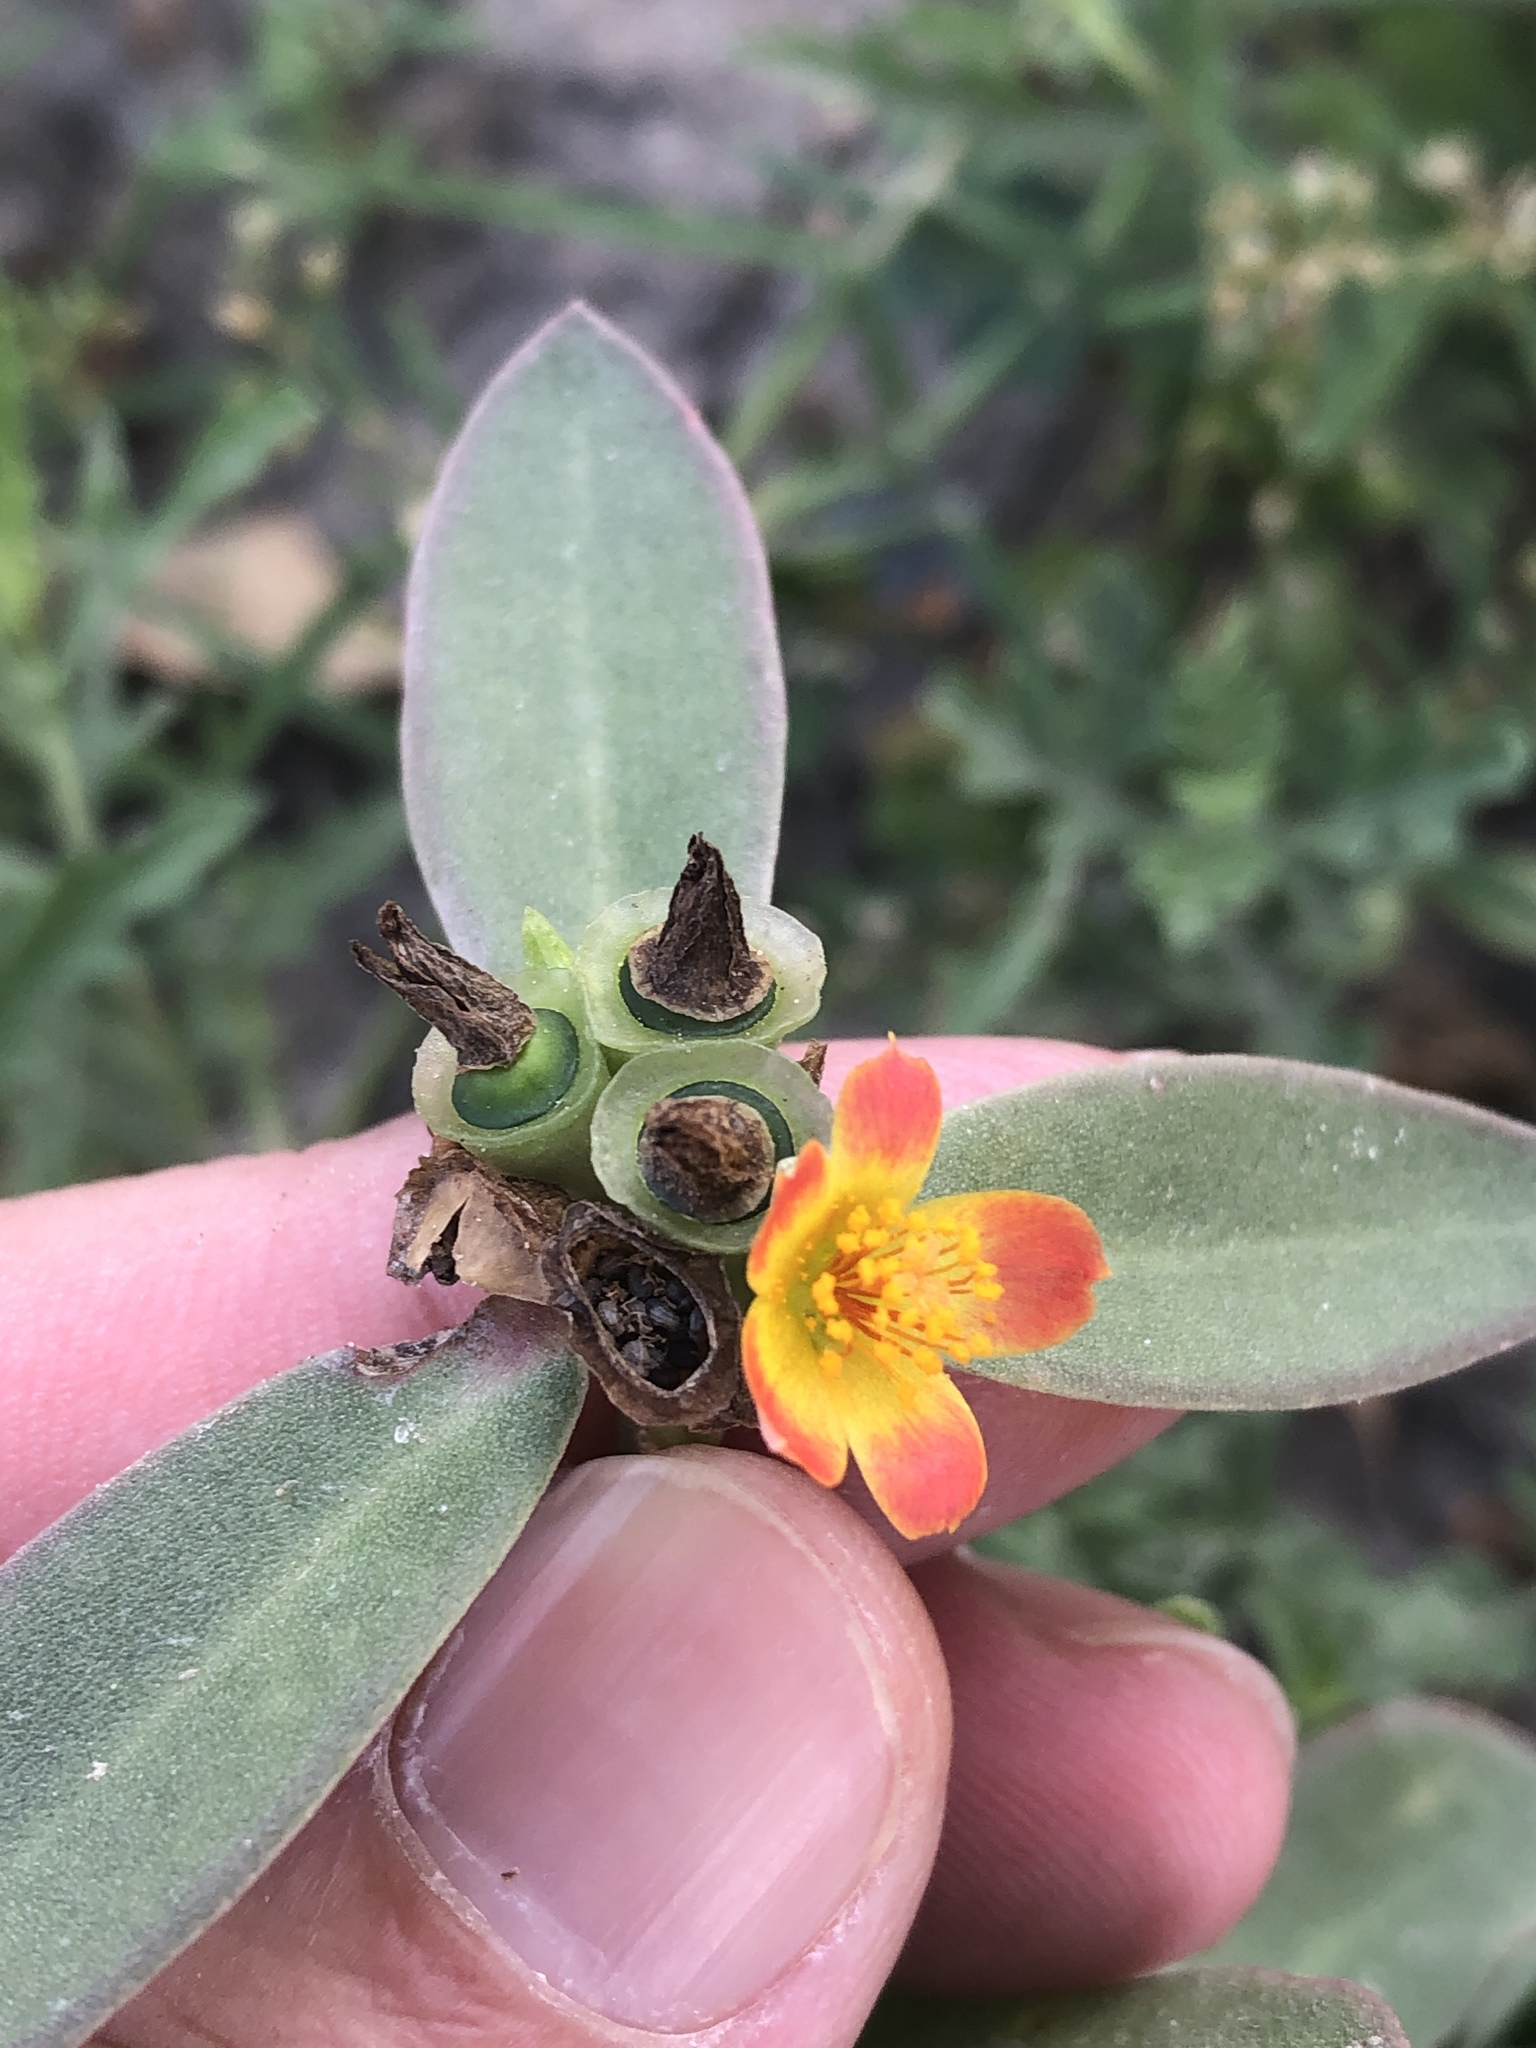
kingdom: Plantae
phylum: Tracheophyta
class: Magnoliopsida
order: Caryophyllales
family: Portulacaceae
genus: Portulaca
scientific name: Portulaca umbraticola
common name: Wingpod purslane
